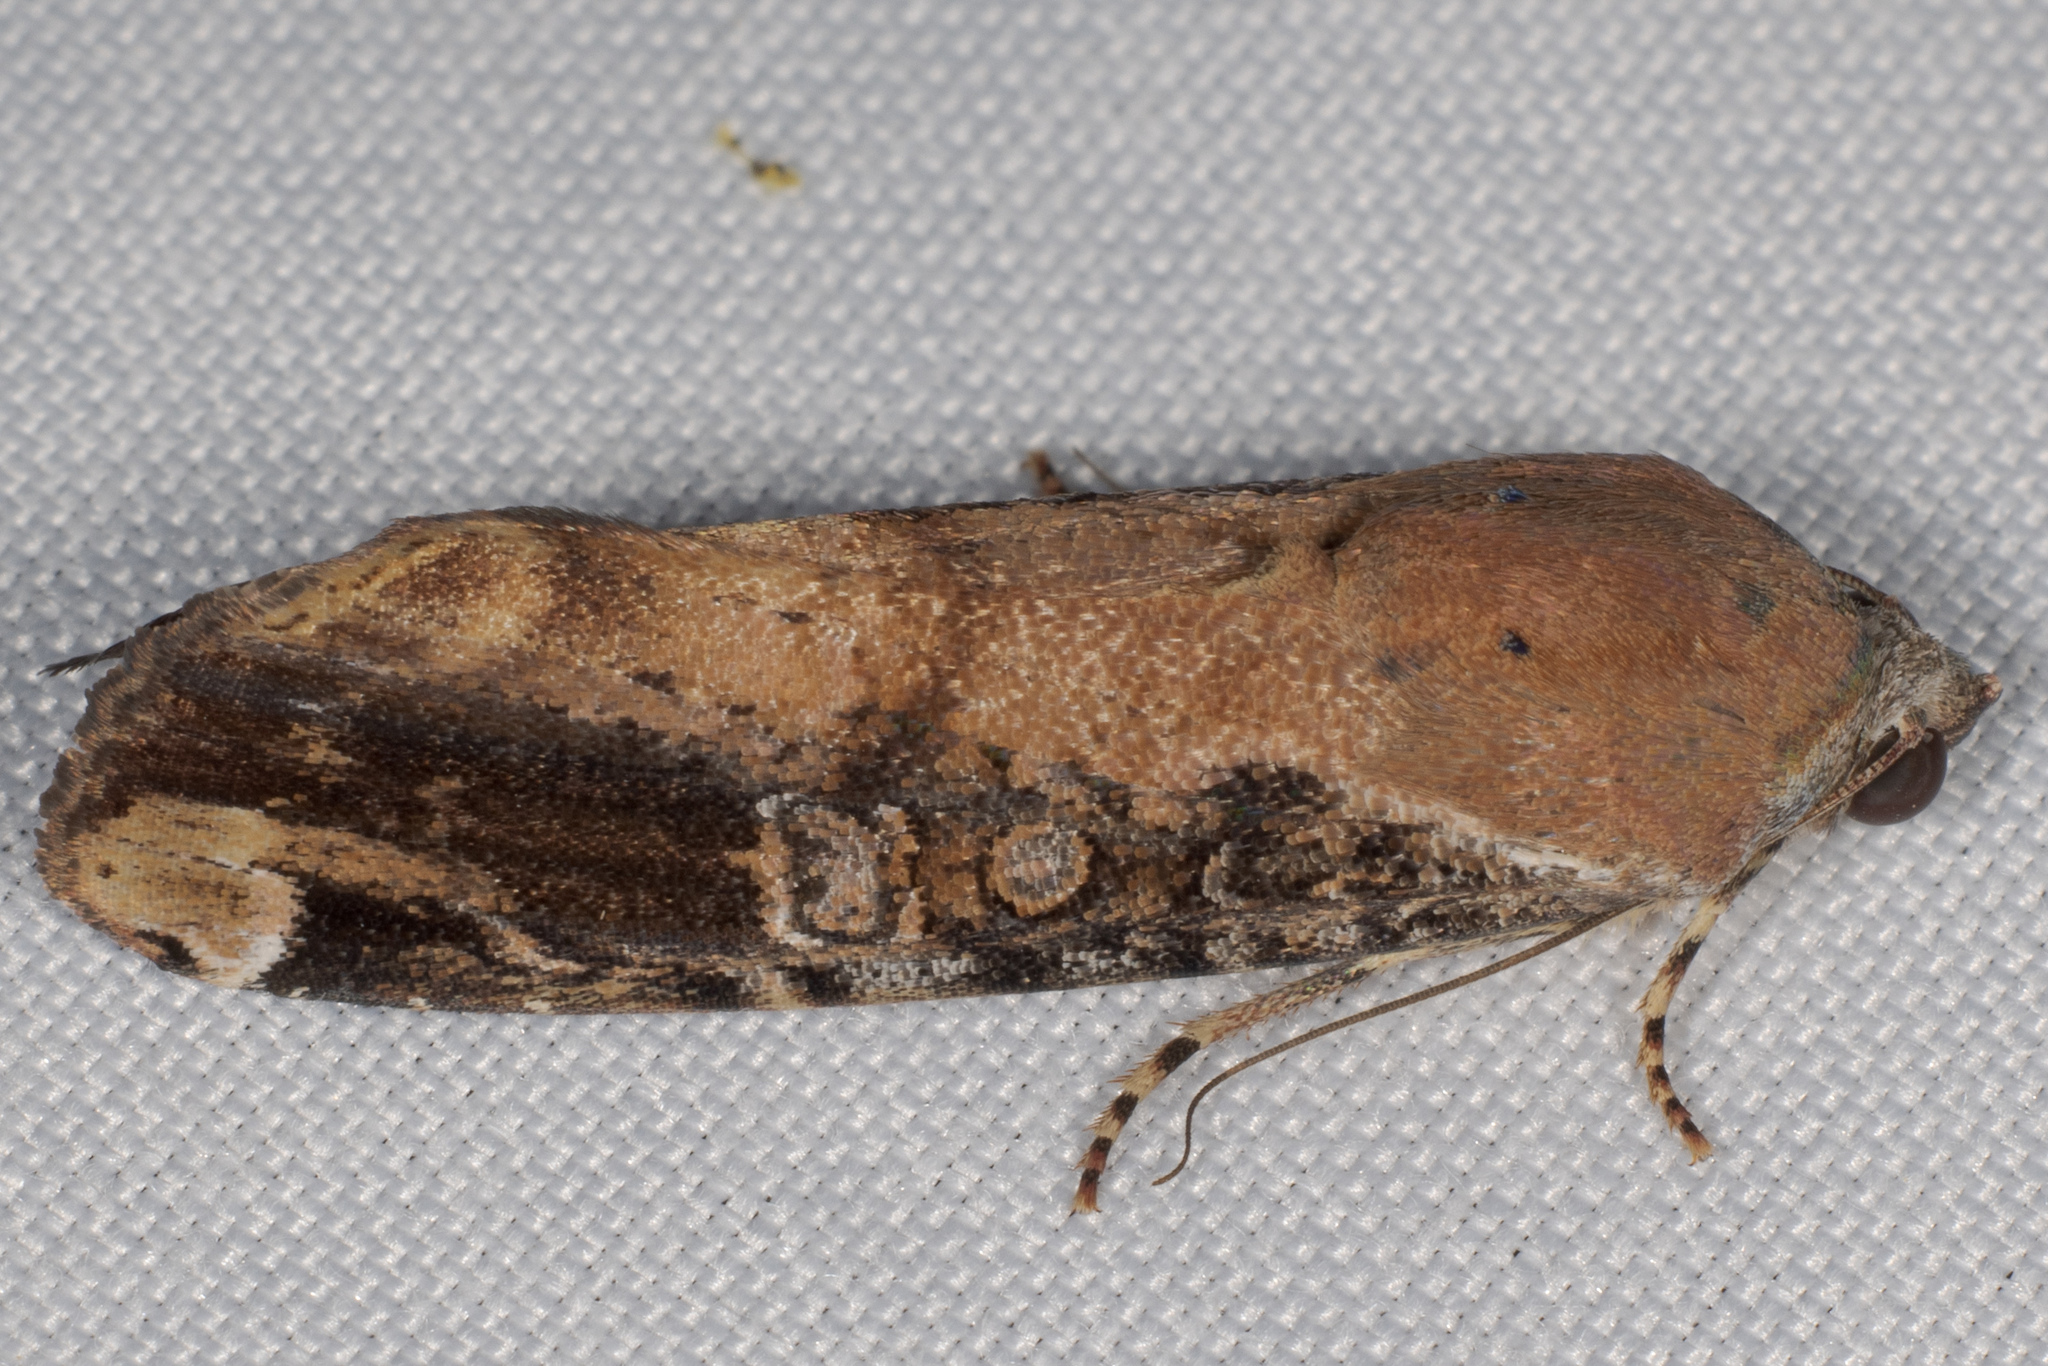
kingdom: Animalia
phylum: Arthropoda
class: Insecta
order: Lepidoptera
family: Noctuidae
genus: Magusa
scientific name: Magusa divaricata
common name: Orb narrow-winged moth
